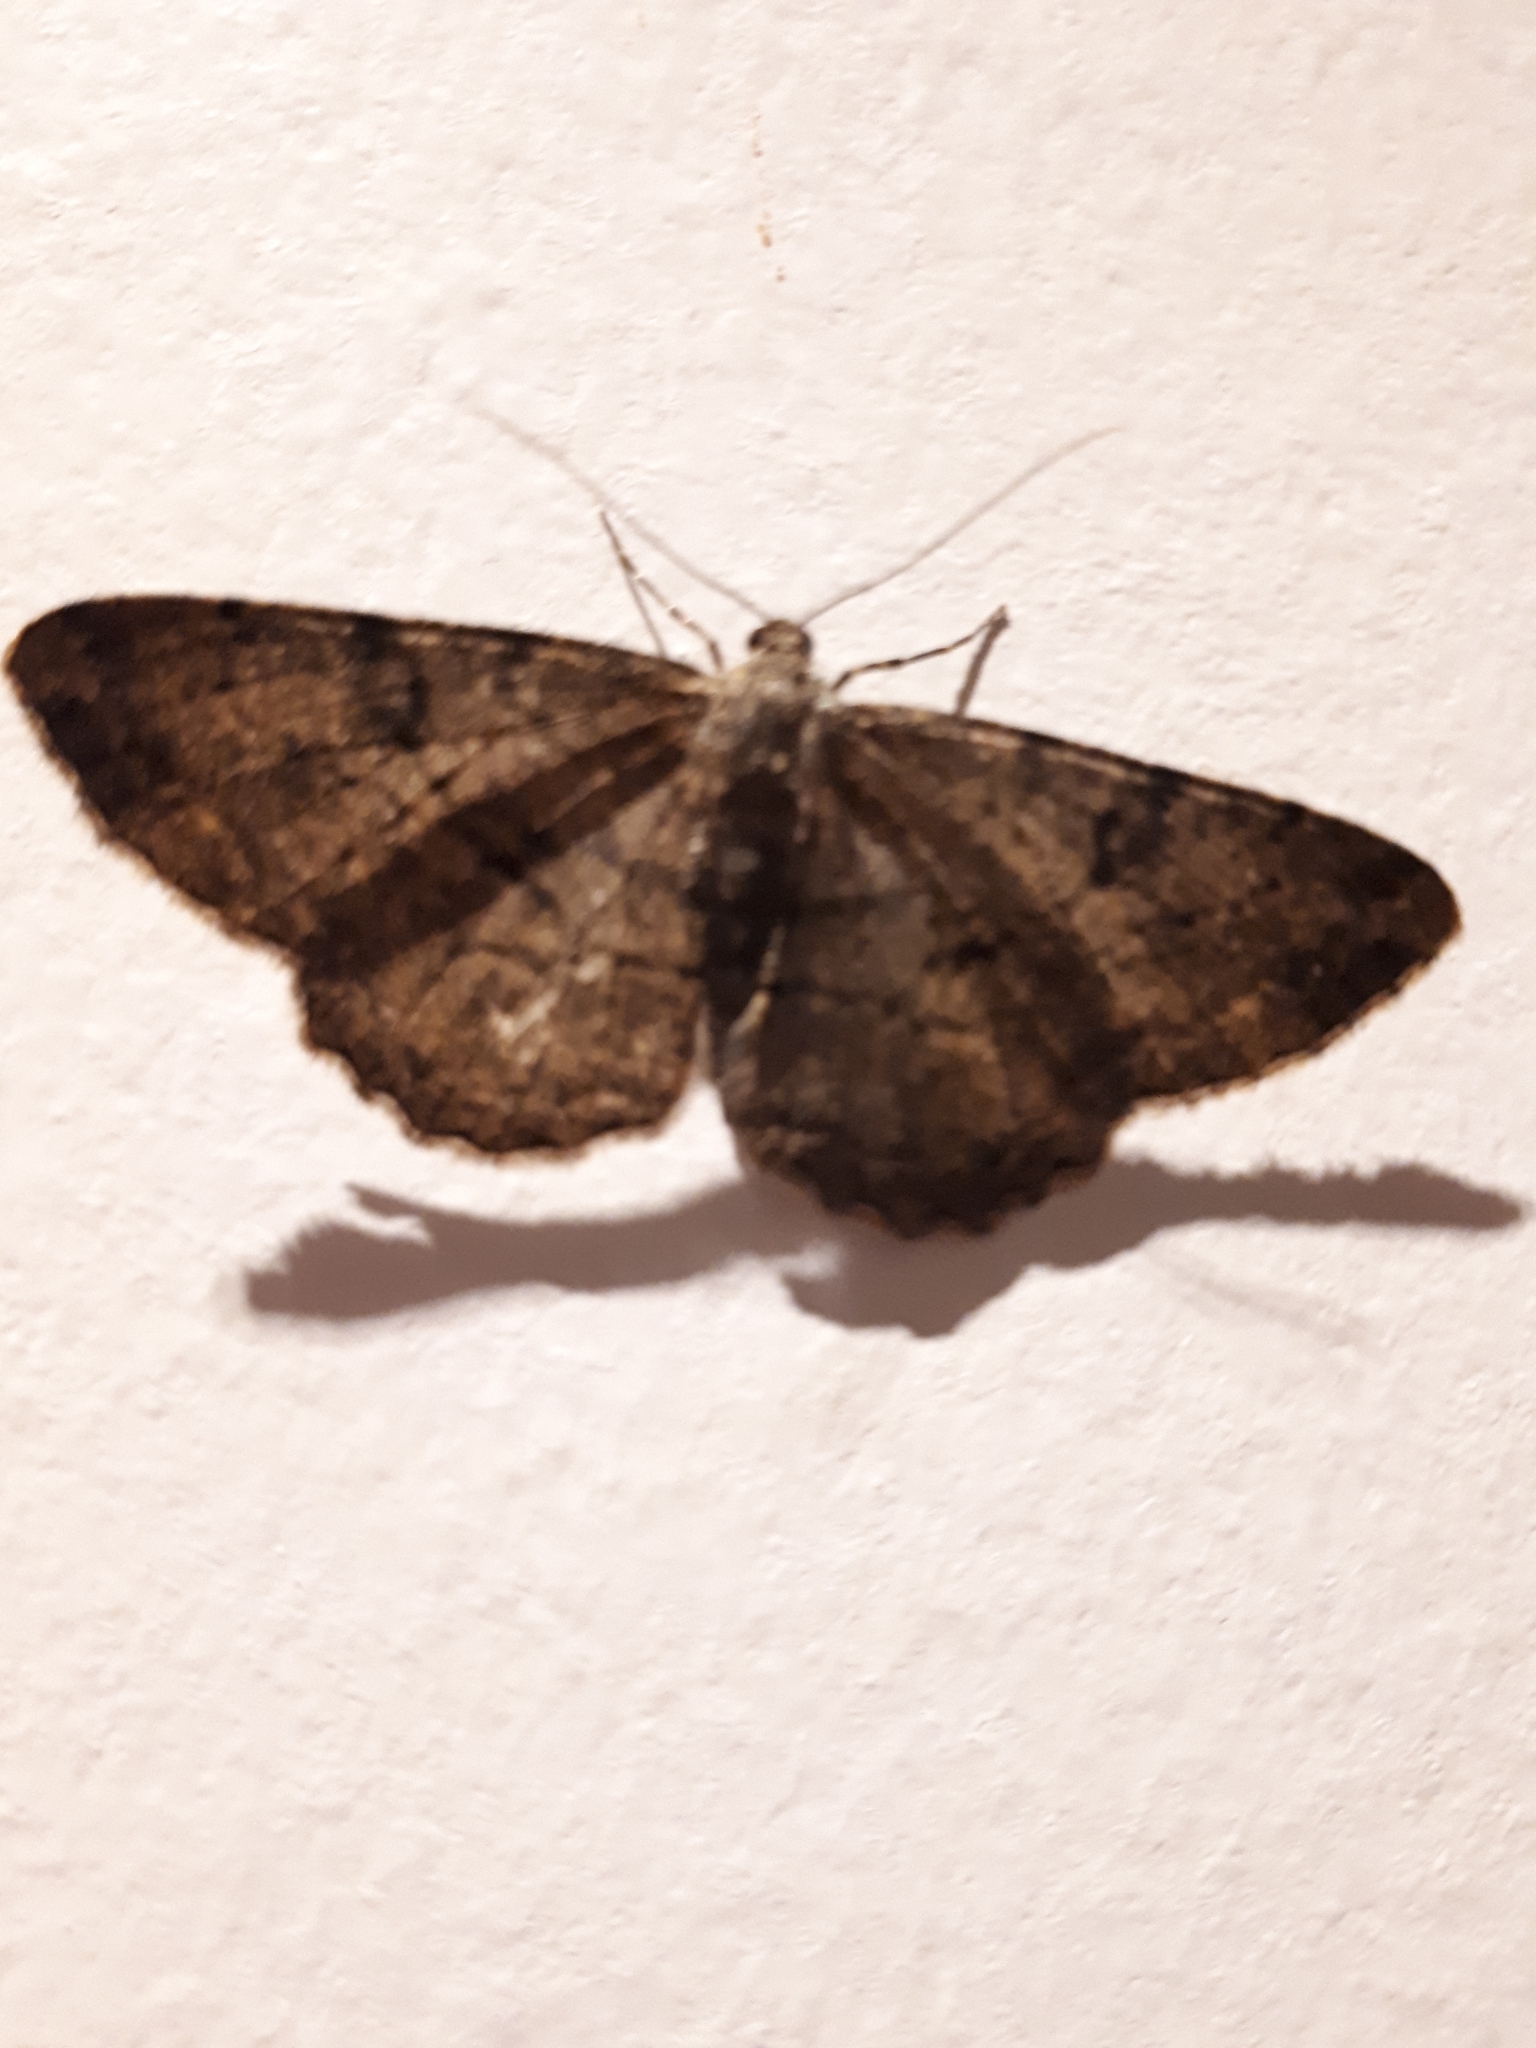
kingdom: Animalia
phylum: Arthropoda
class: Insecta
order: Lepidoptera
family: Geometridae
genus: Peribatodes
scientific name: Peribatodes rhomboidaria
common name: Willow beauty
